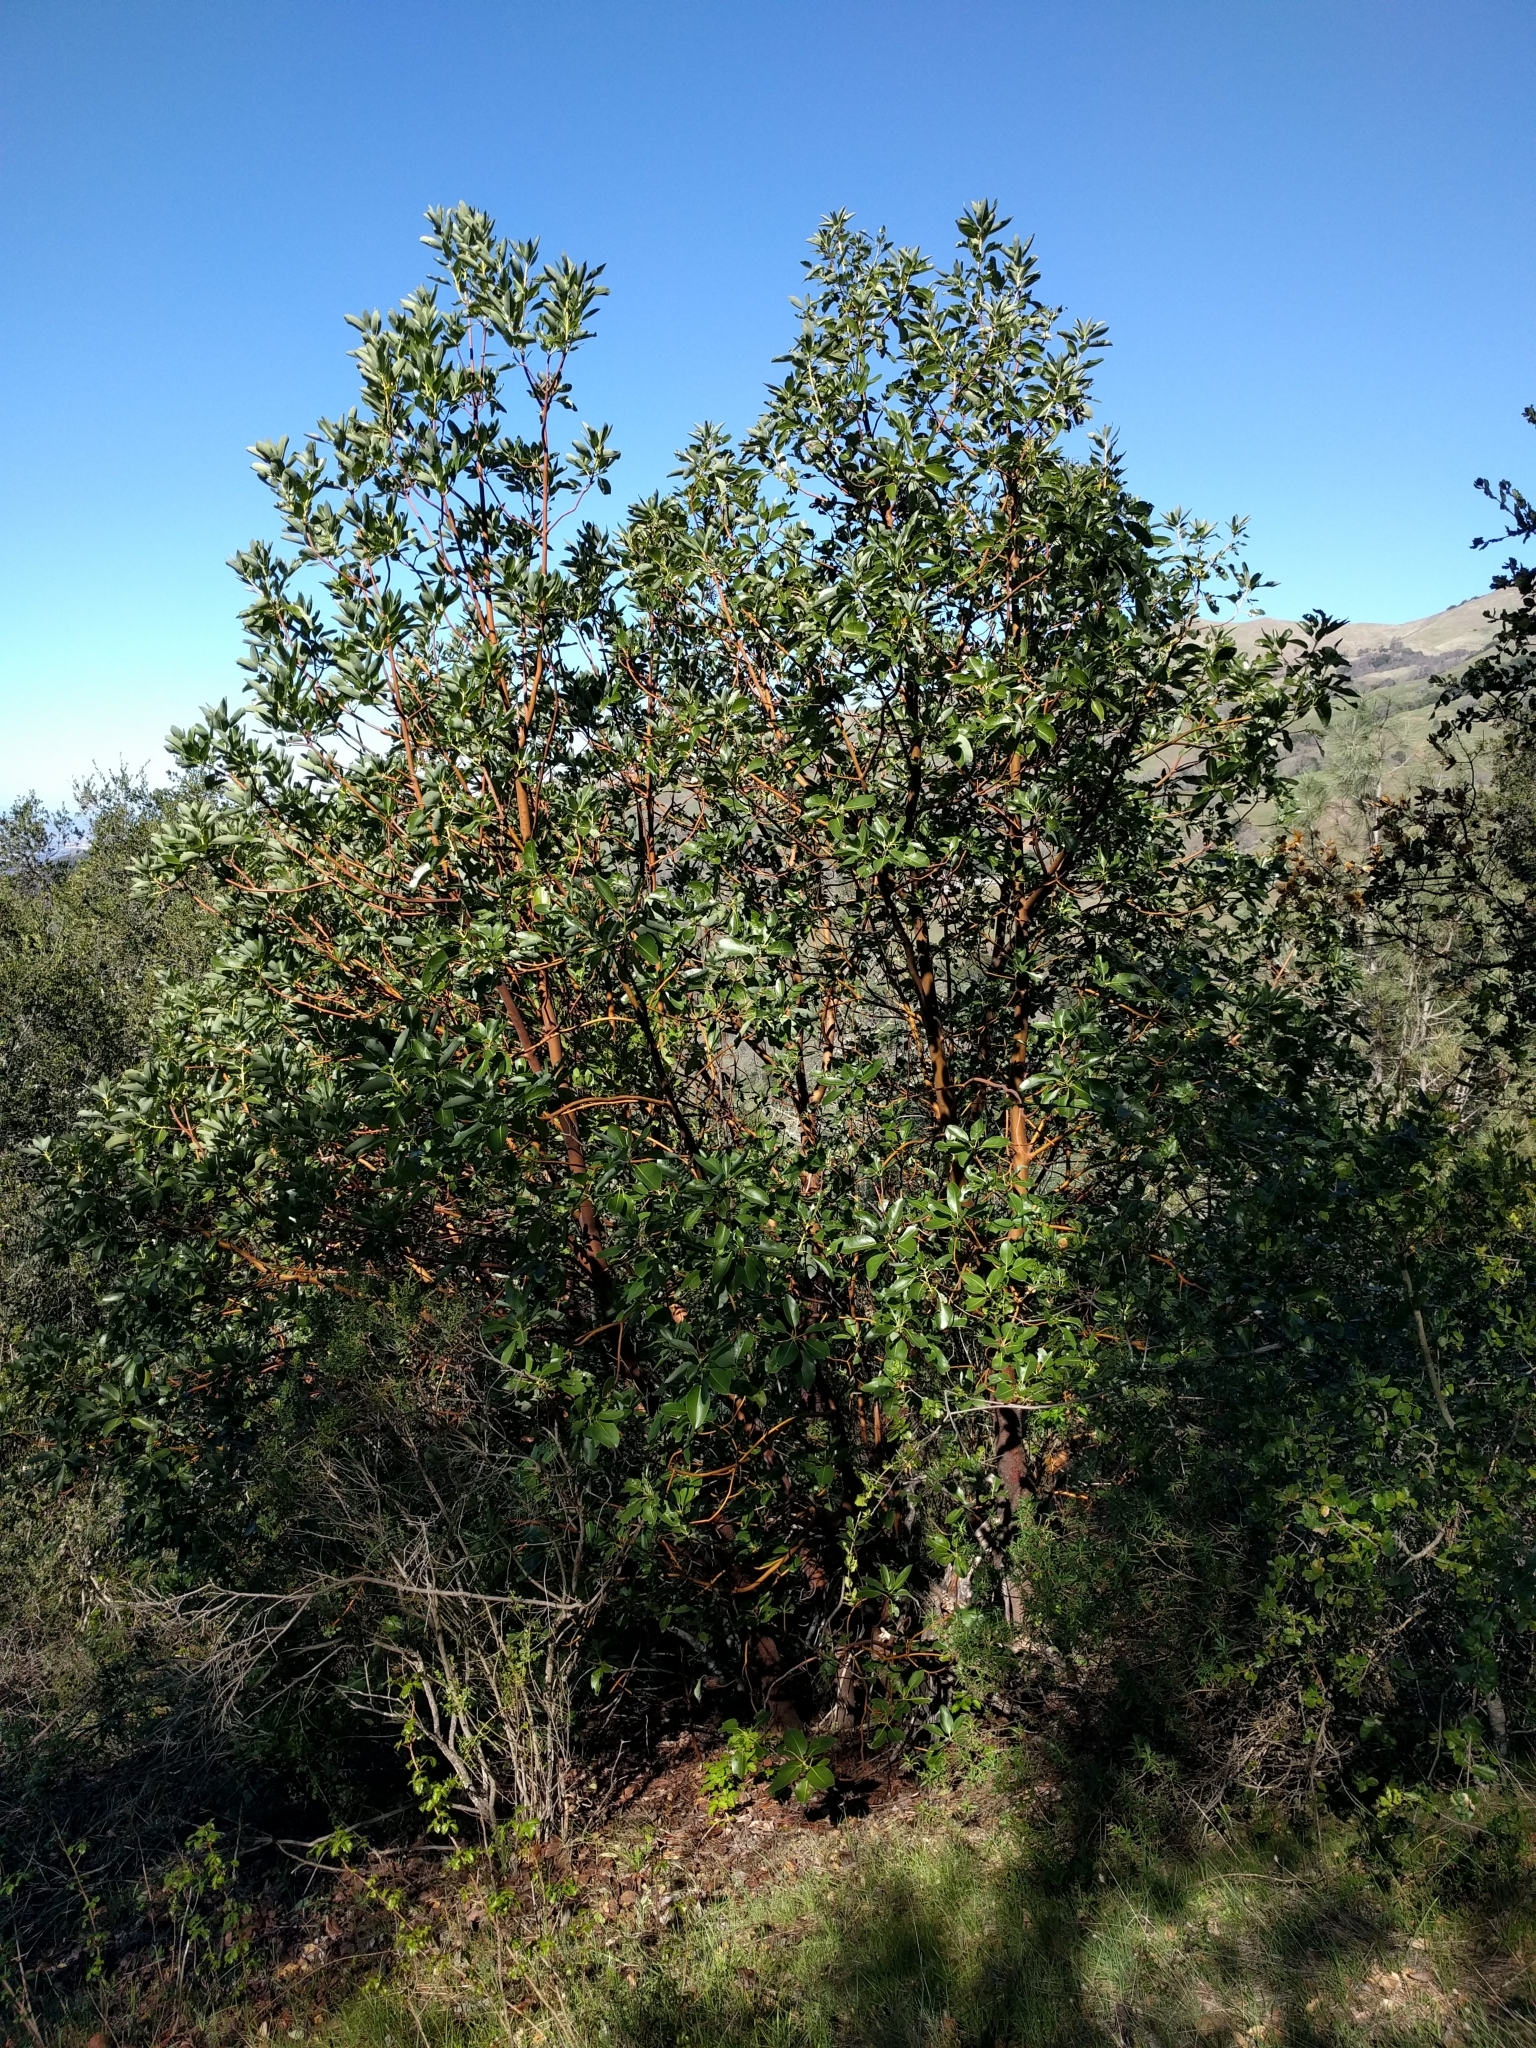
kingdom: Plantae
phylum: Tracheophyta
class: Magnoliopsida
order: Ericales
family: Ericaceae
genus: Arbutus
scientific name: Arbutus menziesii
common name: Pacific madrone
